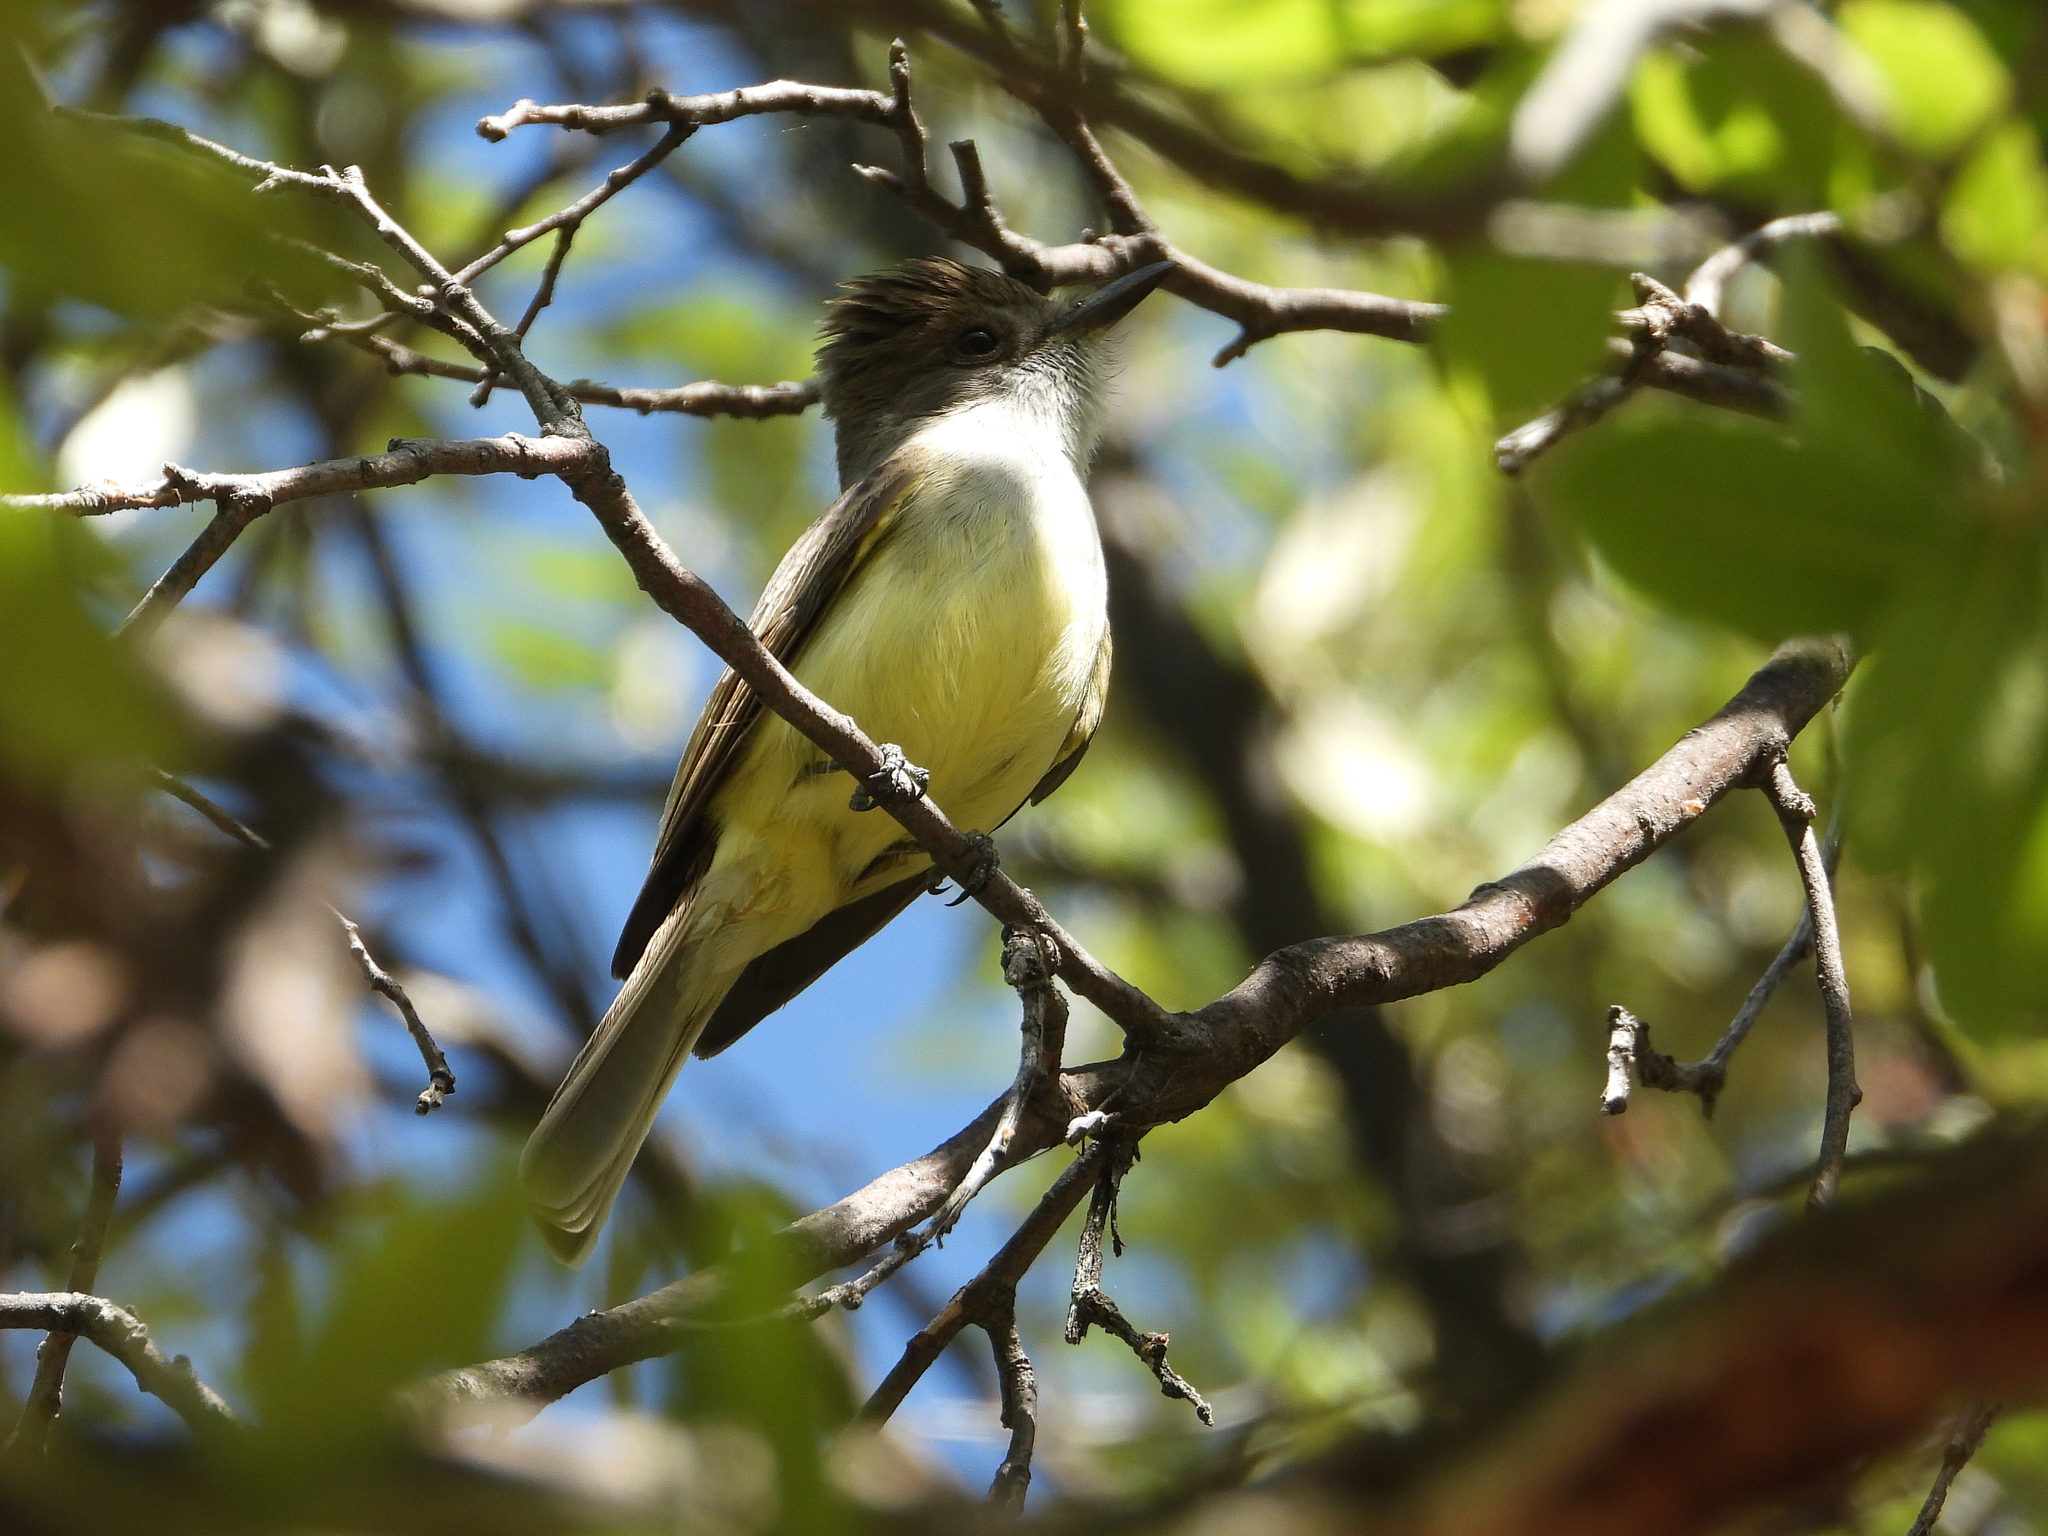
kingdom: Animalia
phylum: Chordata
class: Aves
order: Passeriformes
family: Tyrannidae
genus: Myiarchus
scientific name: Myiarchus tuberculifer
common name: Dusky-capped flycatcher
